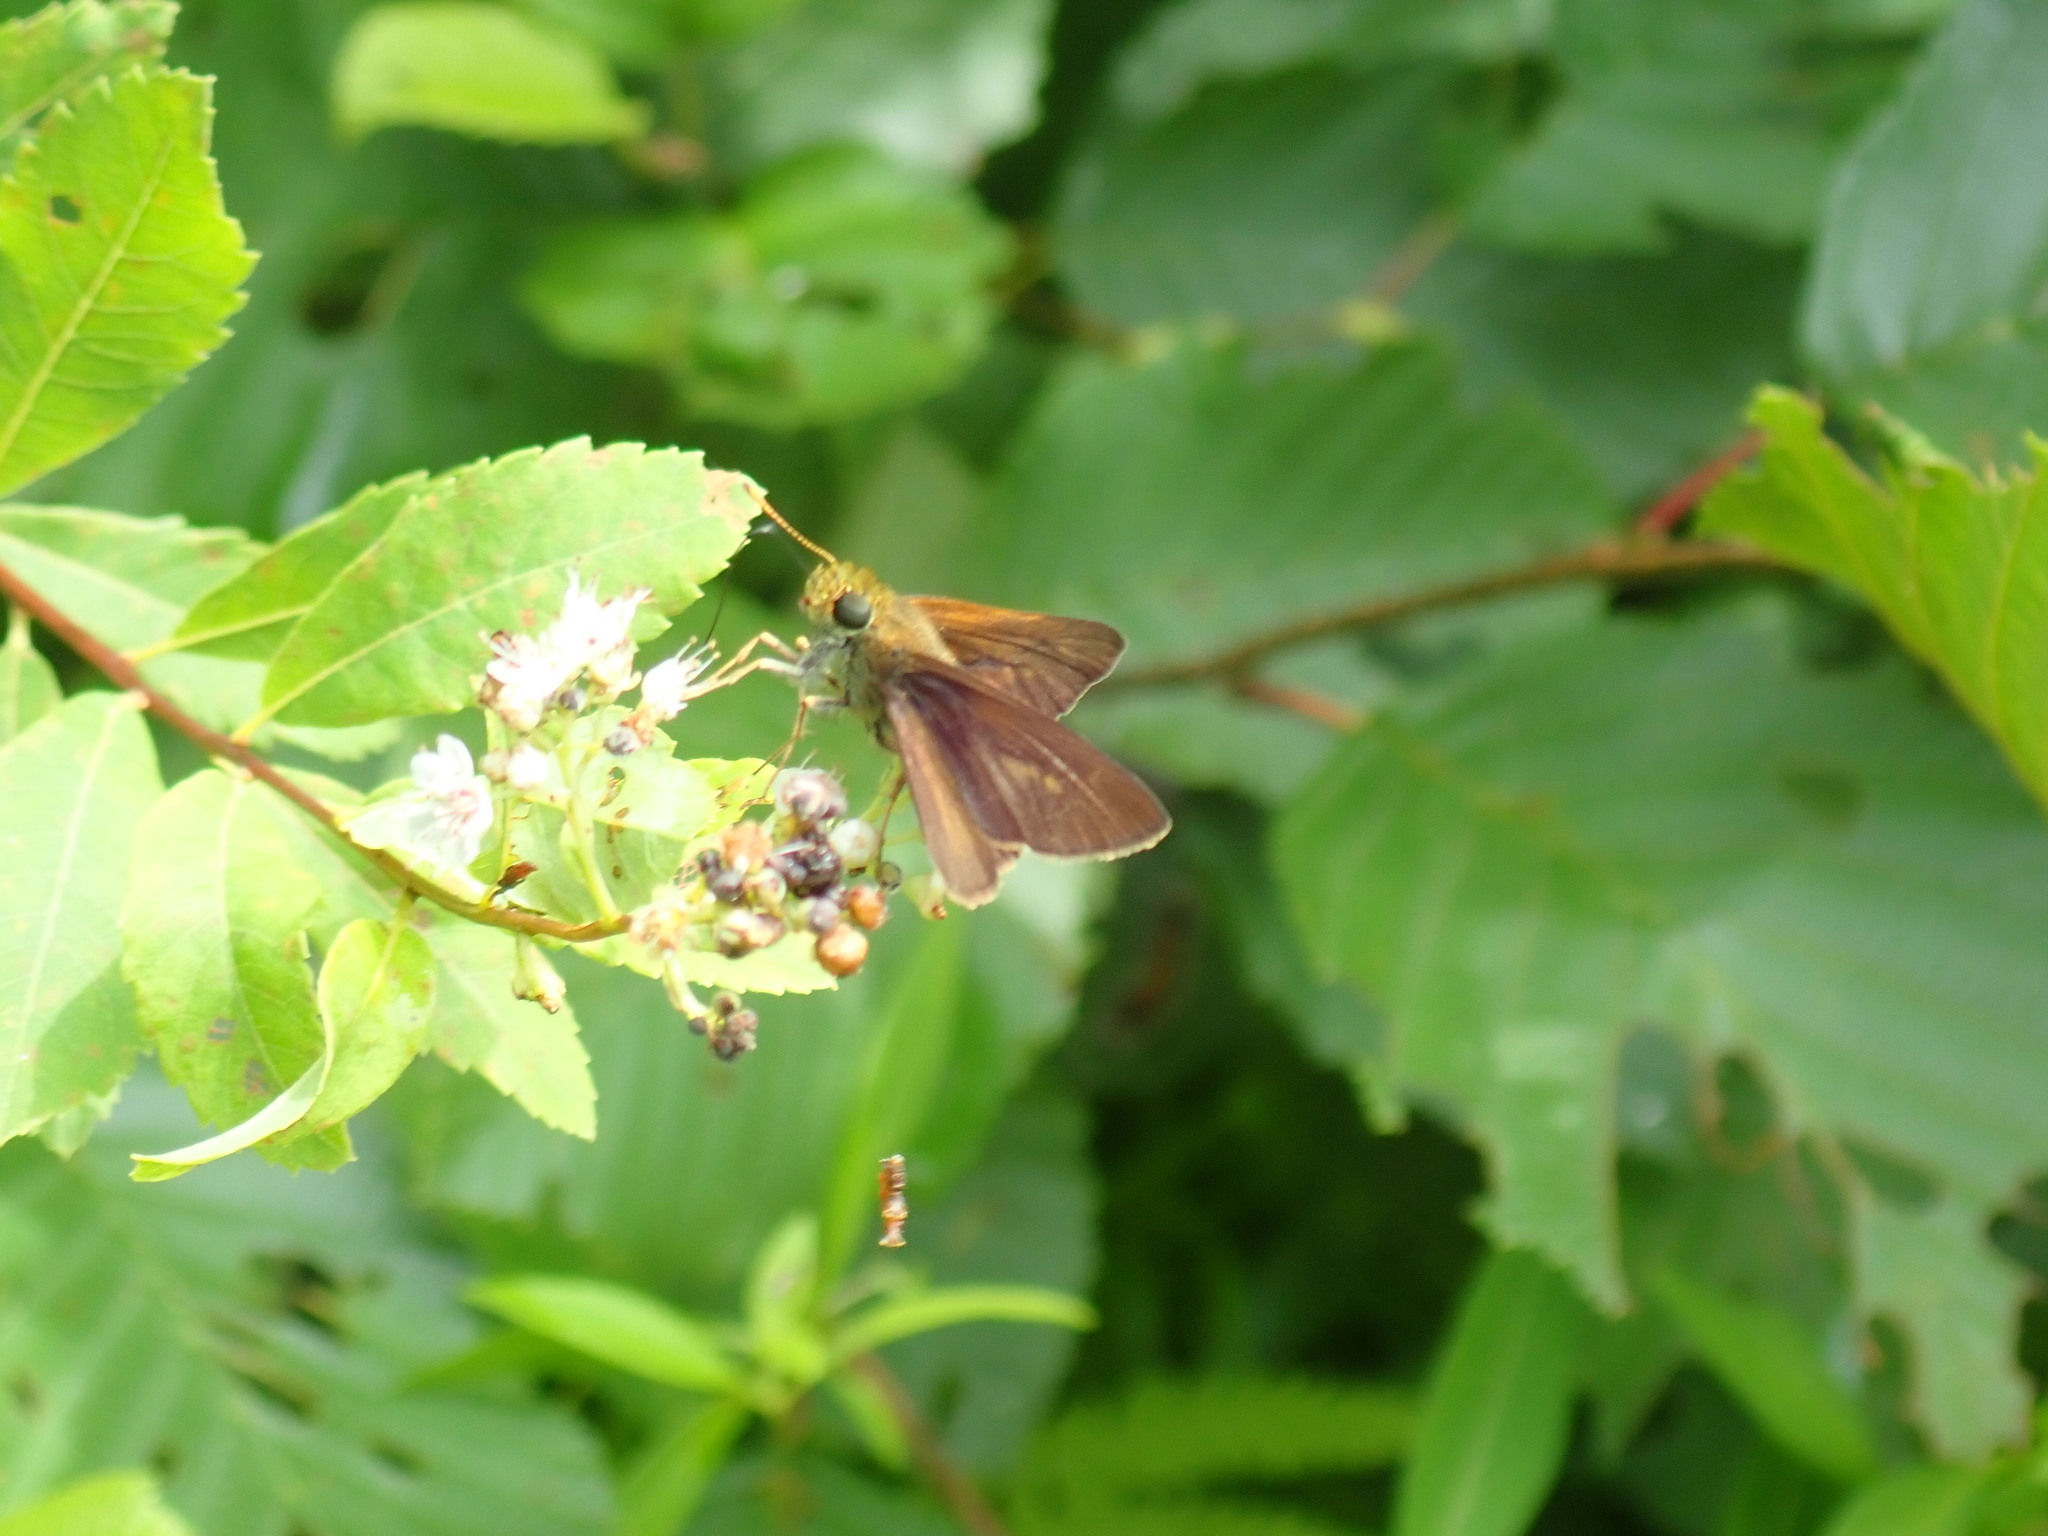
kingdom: Animalia
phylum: Arthropoda
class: Insecta
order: Lepidoptera
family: Hesperiidae
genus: Euphyes
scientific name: Euphyes vestris
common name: Dun skipper
